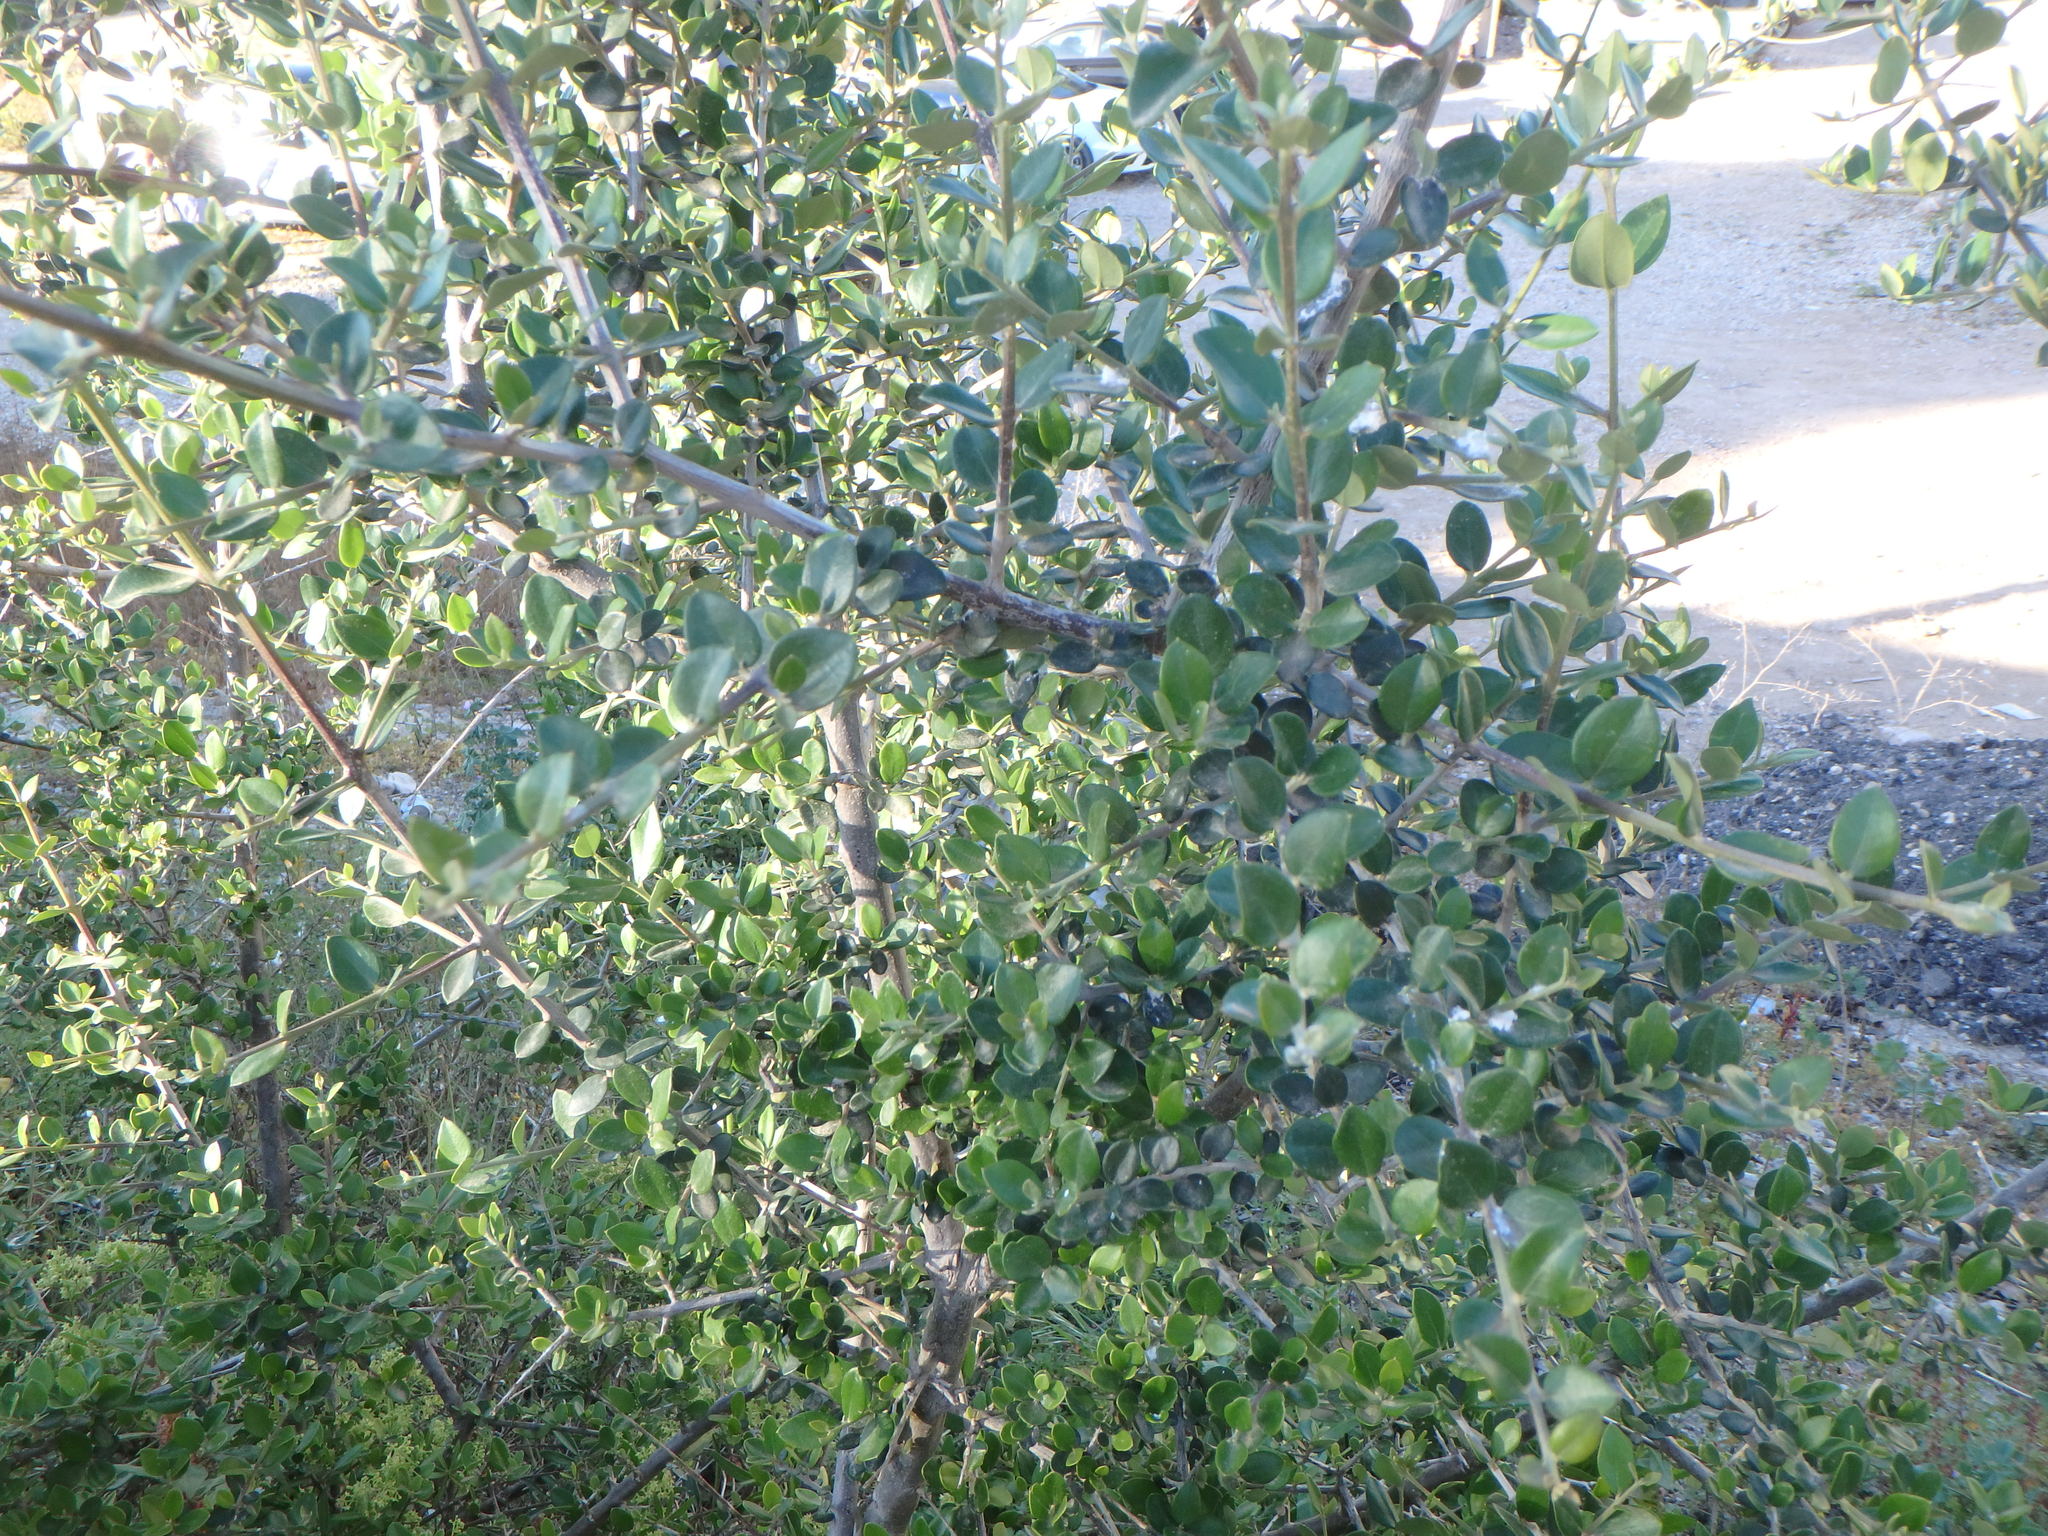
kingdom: Plantae
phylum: Tracheophyta
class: Magnoliopsida
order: Lamiales
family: Oleaceae
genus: Olea
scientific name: Olea europaea
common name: Olive
